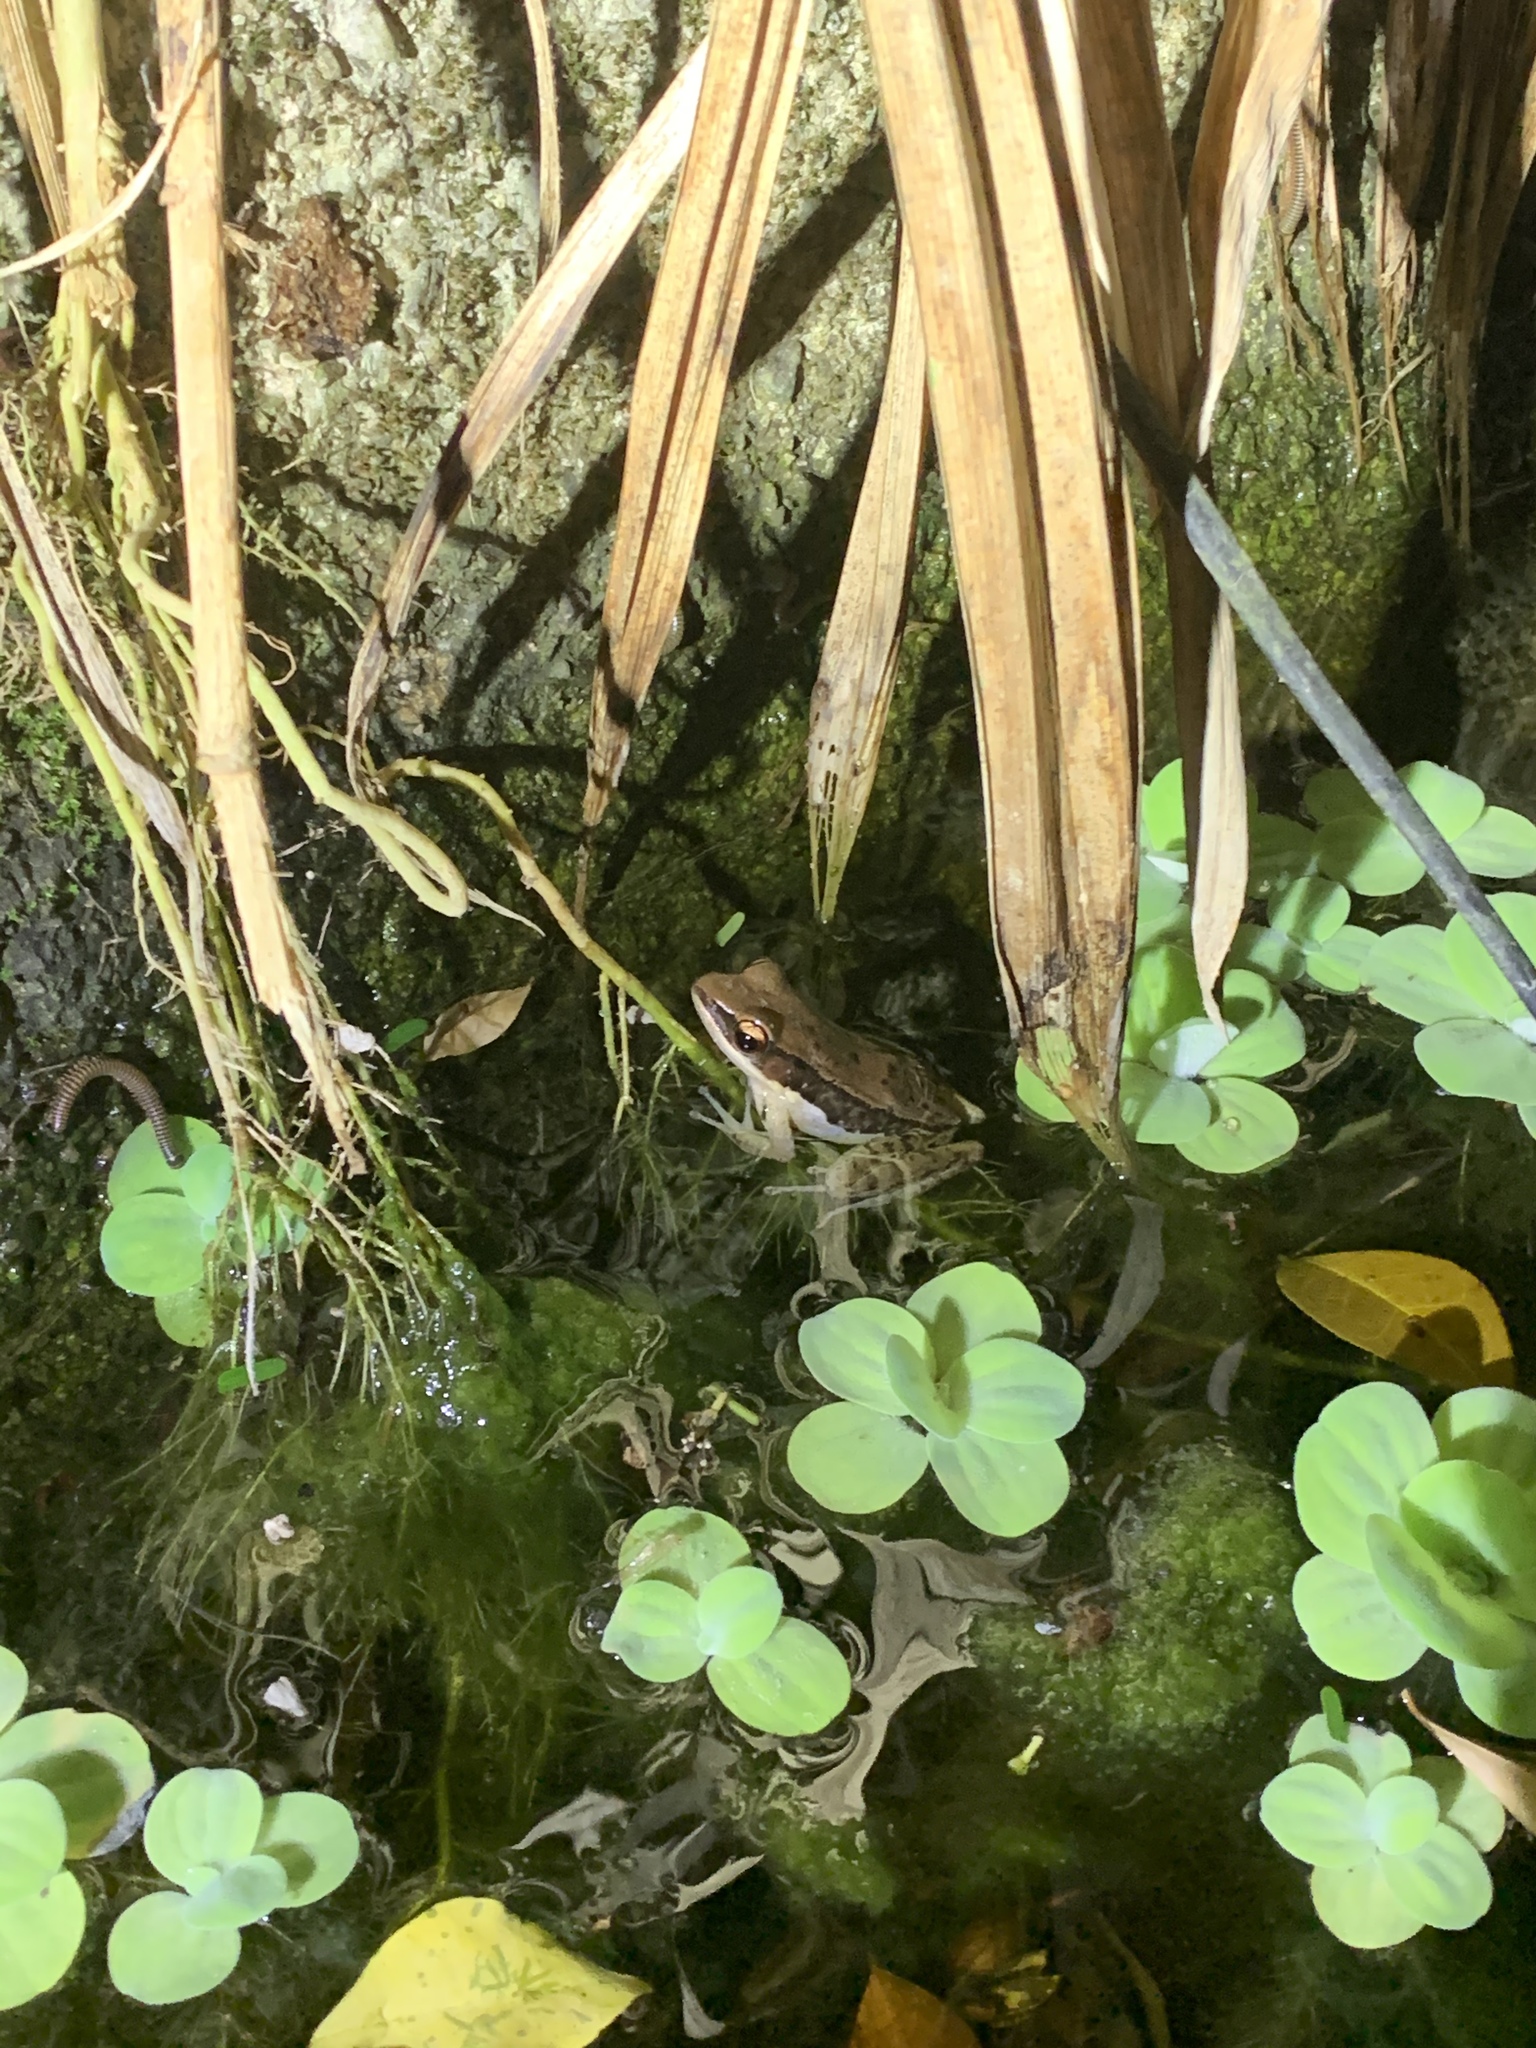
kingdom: Animalia
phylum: Chordata
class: Amphibia
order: Anura
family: Ranidae
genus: Sylvirana
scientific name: Sylvirana malayana
